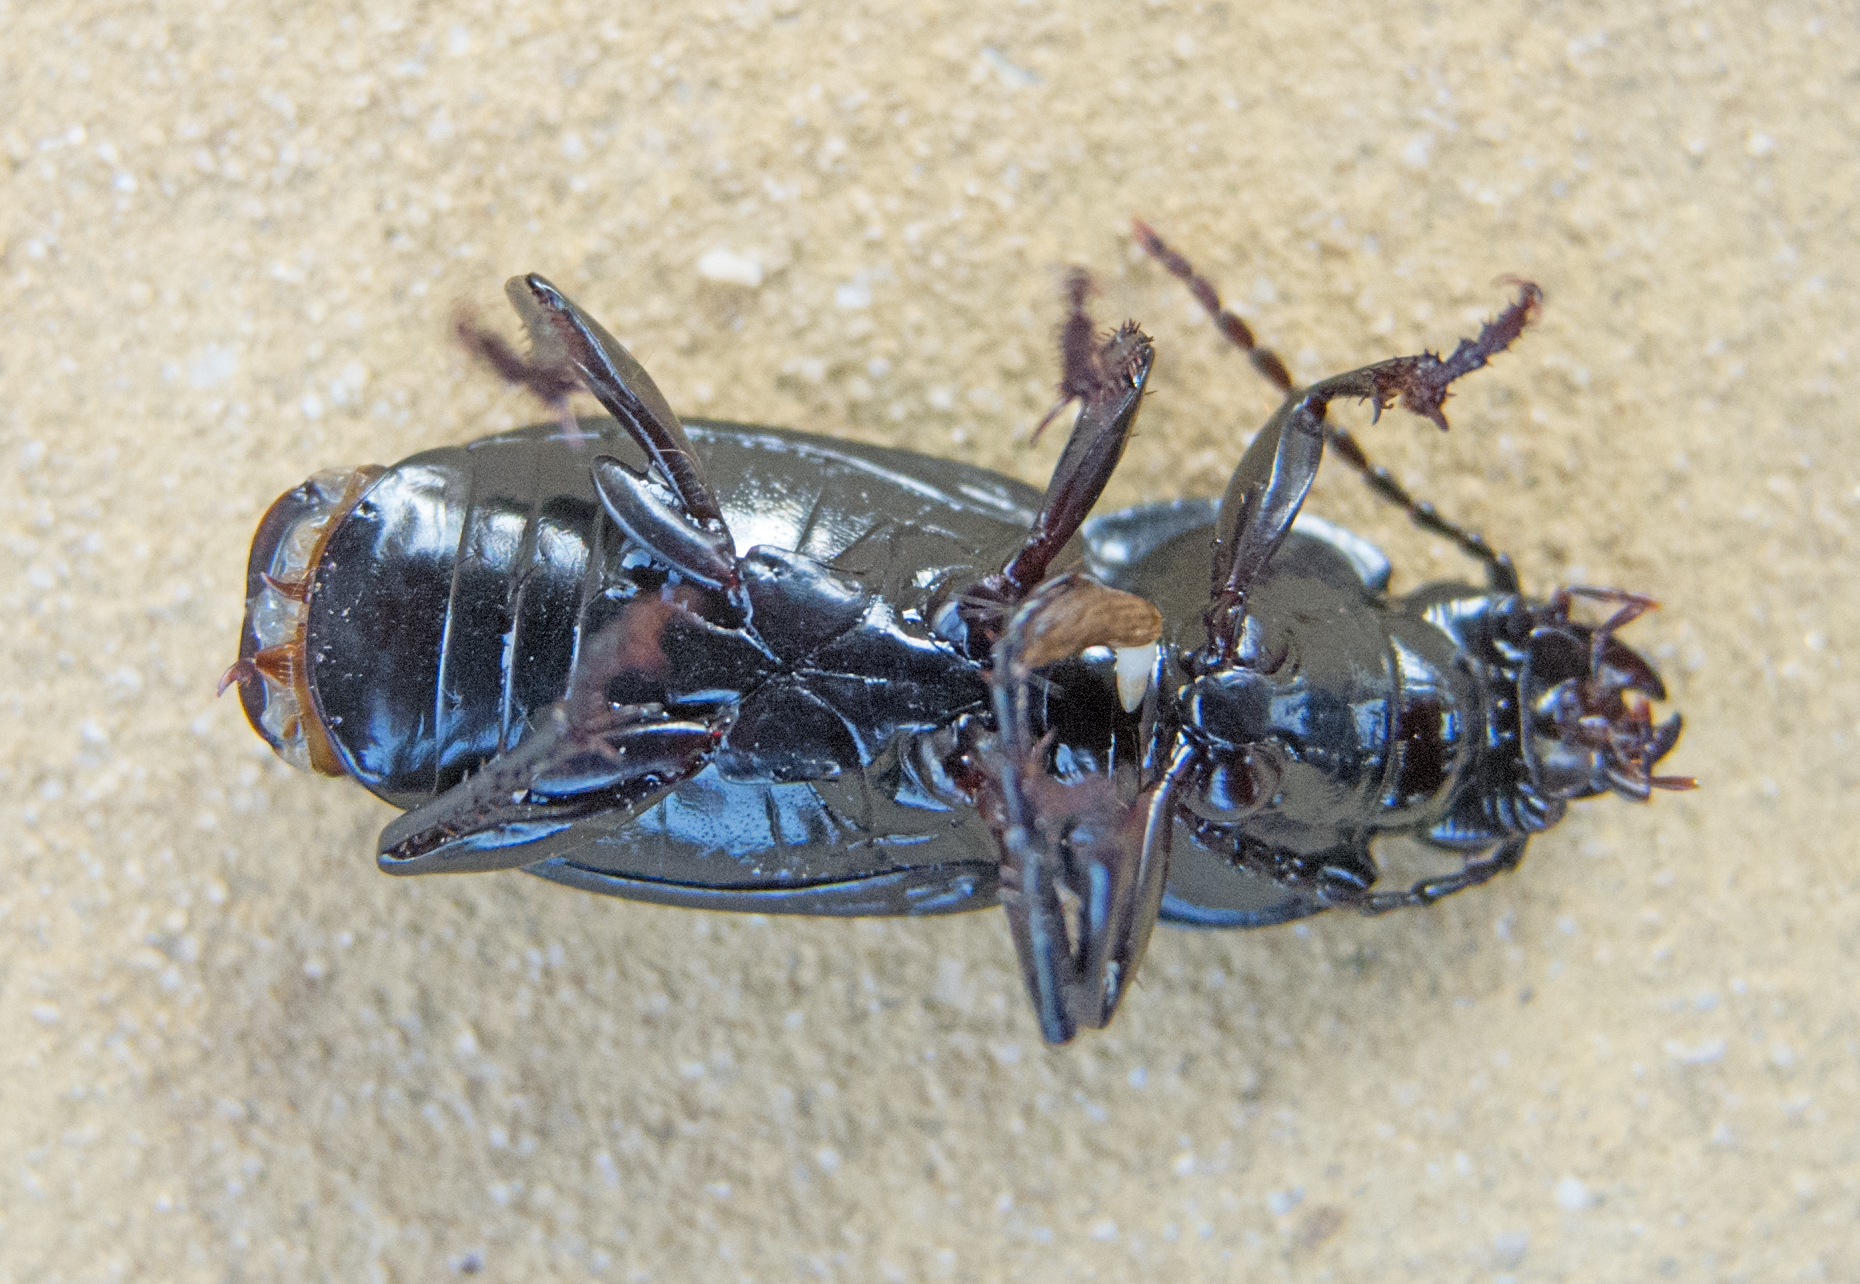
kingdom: Animalia
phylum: Arthropoda
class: Insecta
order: Coleoptera
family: Carabidae
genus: Poecilus
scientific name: Poecilus koyi
